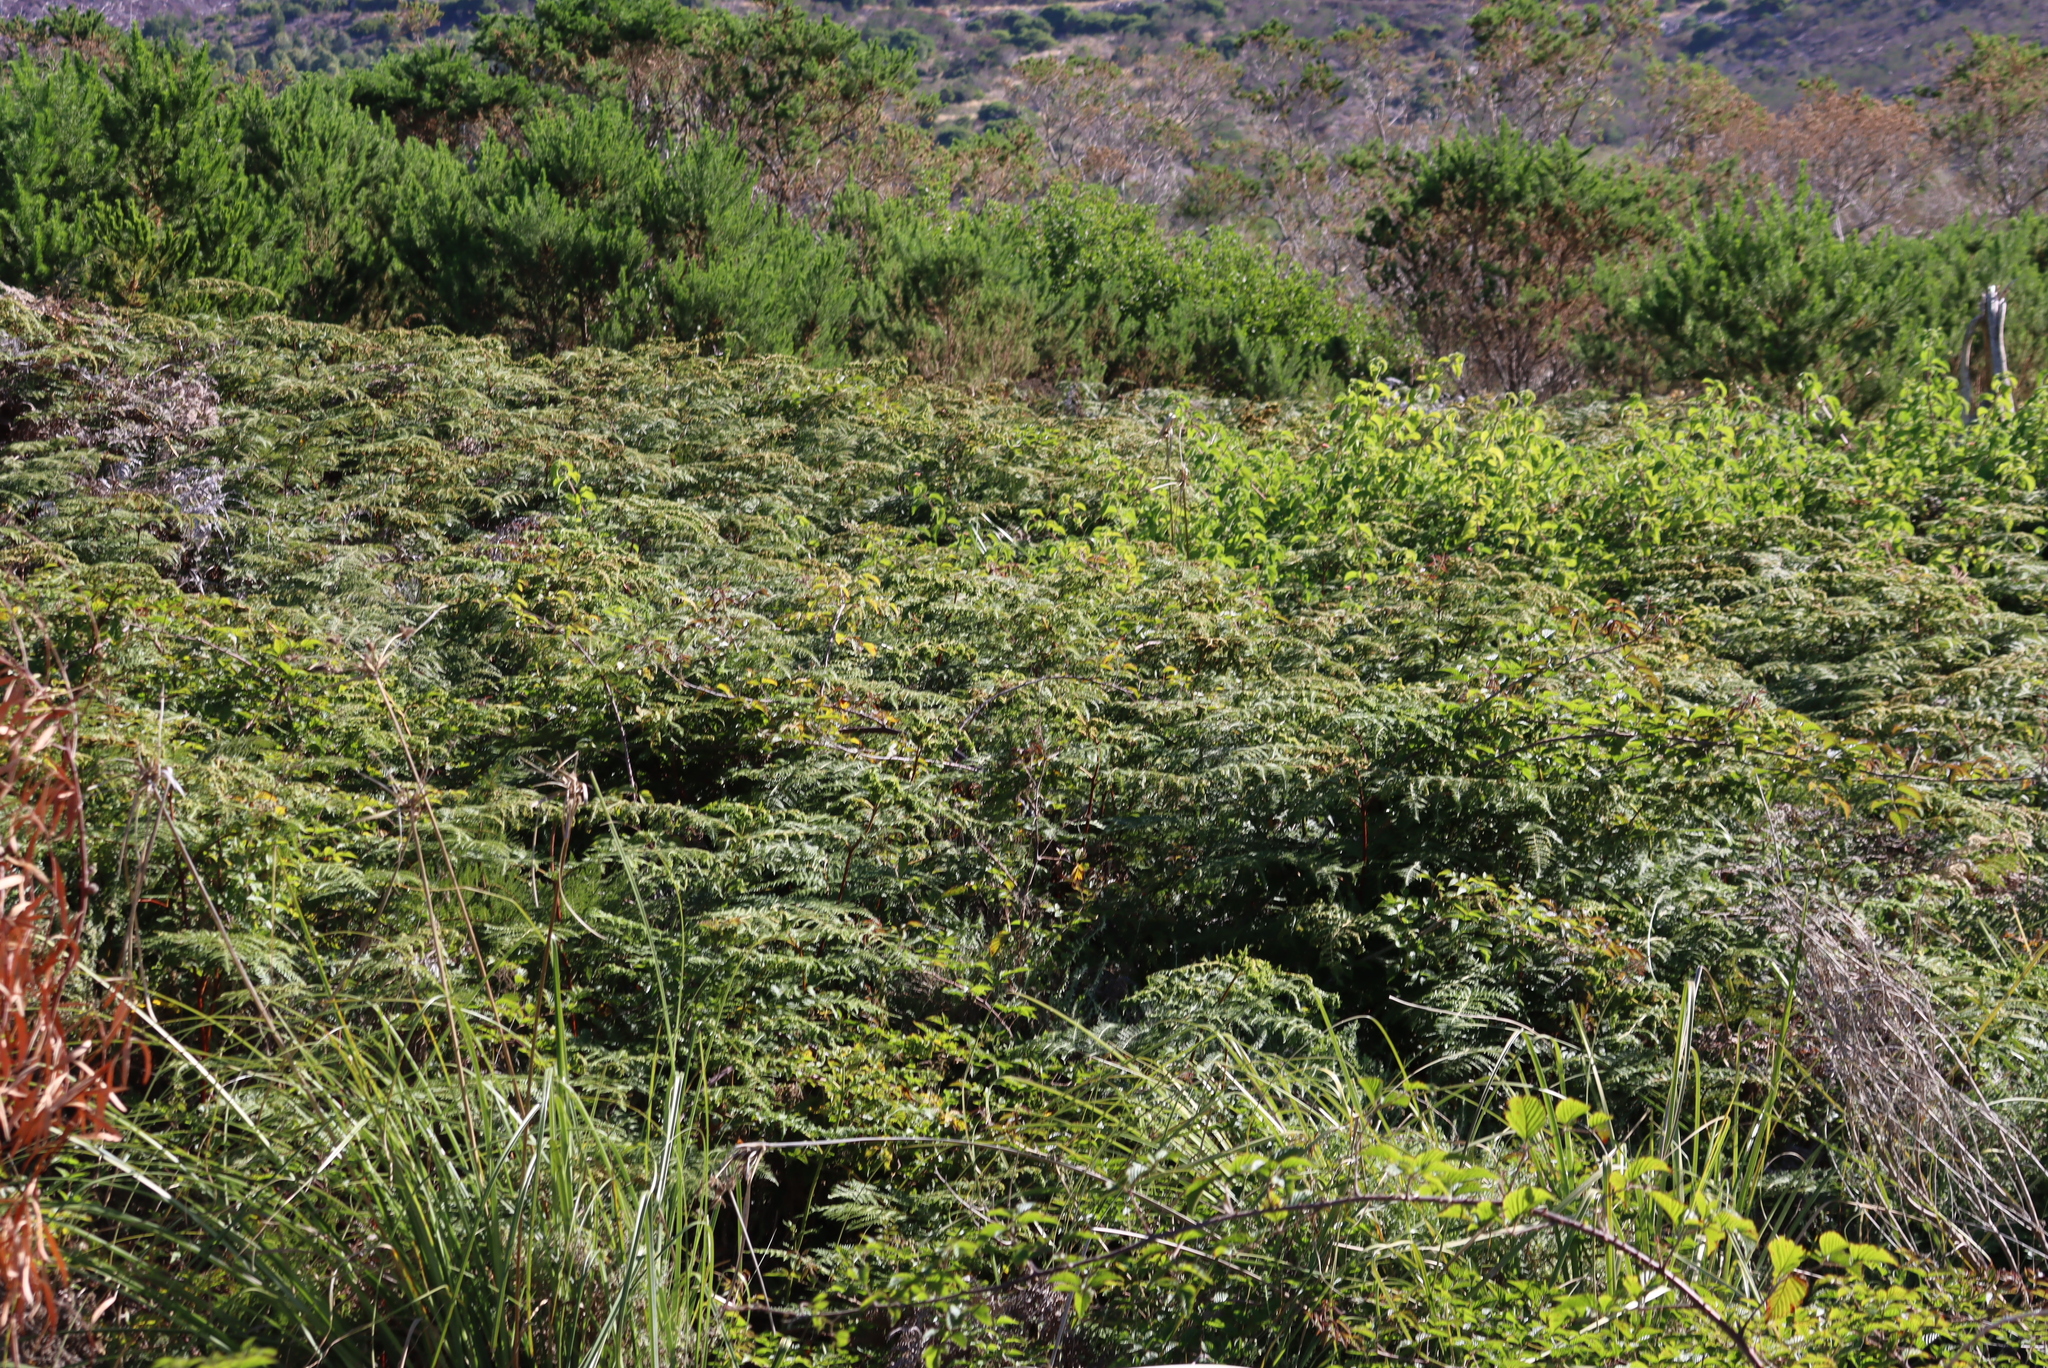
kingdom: Plantae
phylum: Tracheophyta
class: Polypodiopsida
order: Polypodiales
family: Dennstaedtiaceae
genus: Pteridium
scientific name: Pteridium aquilinum
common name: Bracken
